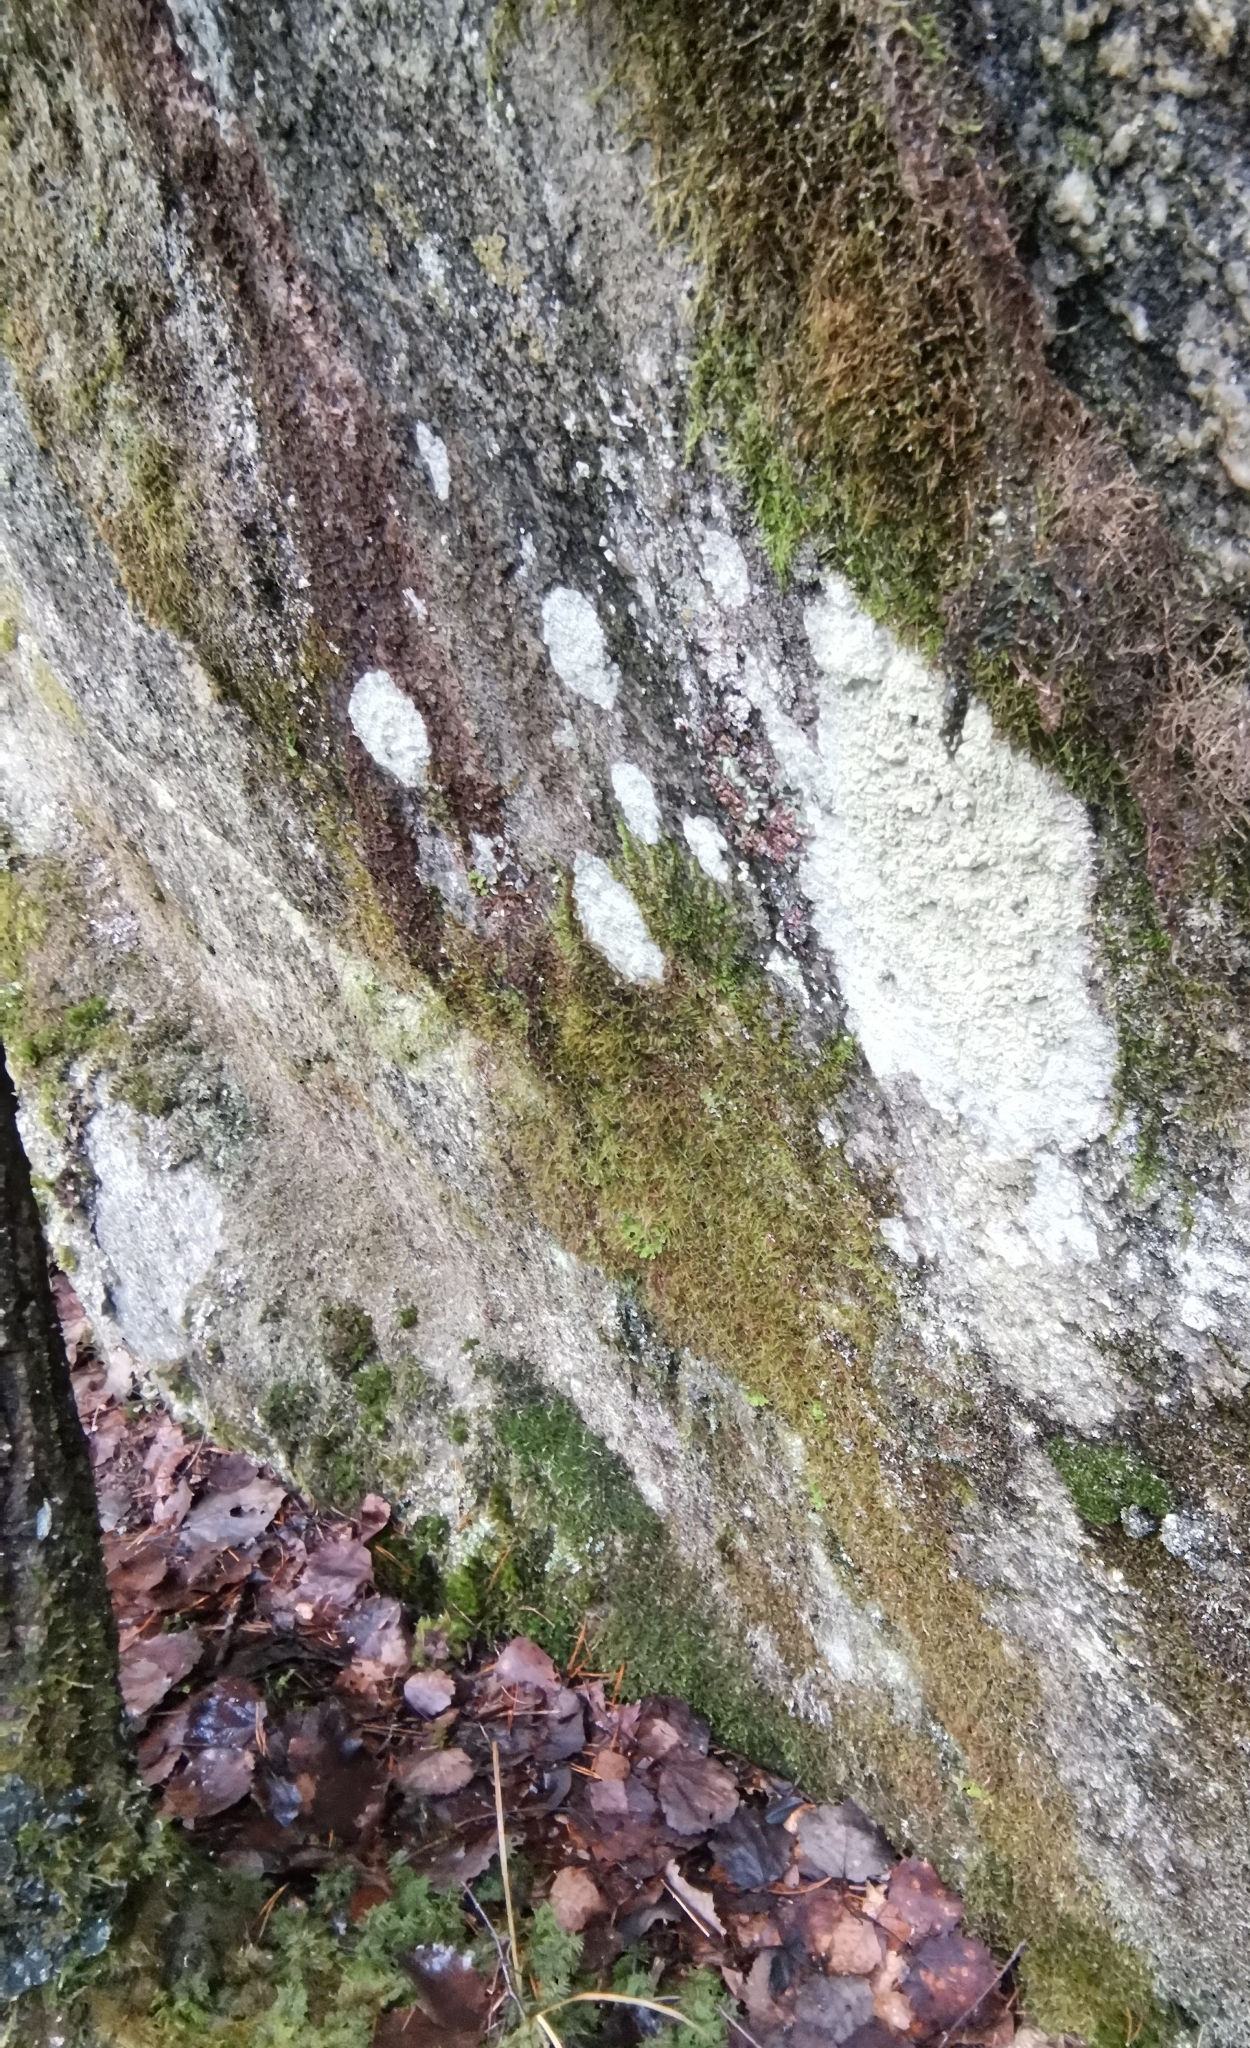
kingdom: Fungi
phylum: Ascomycota
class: Lecanoromycetes
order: Peltigerales
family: Lobariaceae
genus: Lobaria
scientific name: Lobaria pulmonaria
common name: Lungwort
